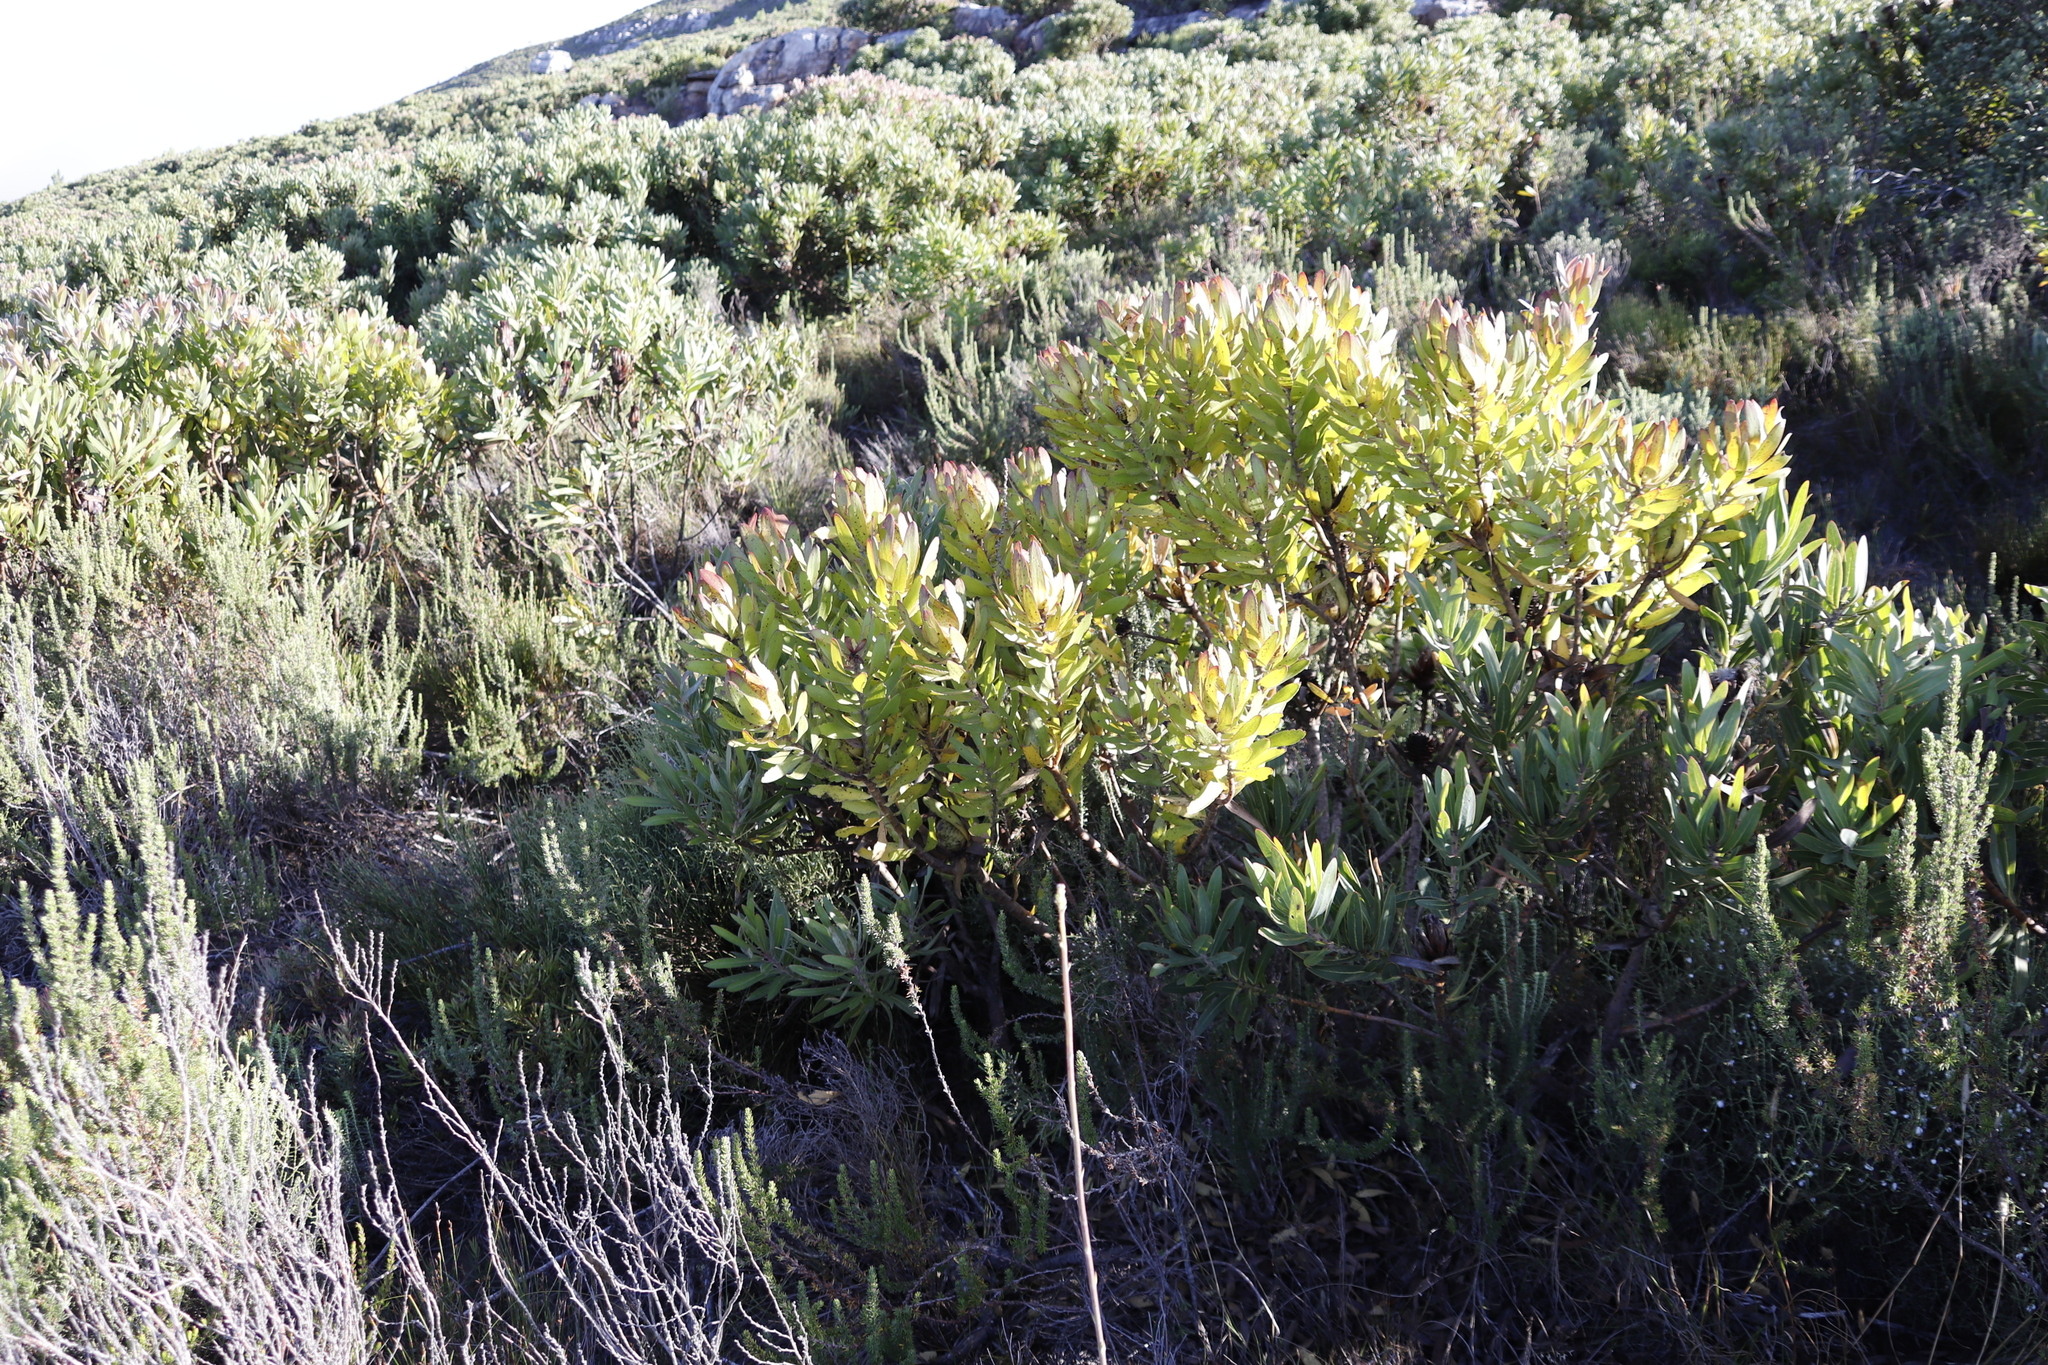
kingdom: Plantae
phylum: Tracheophyta
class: Magnoliopsida
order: Proteales
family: Proteaceae
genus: Leucadendron
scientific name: Leucadendron laureolum
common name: Golden sunshinebush
